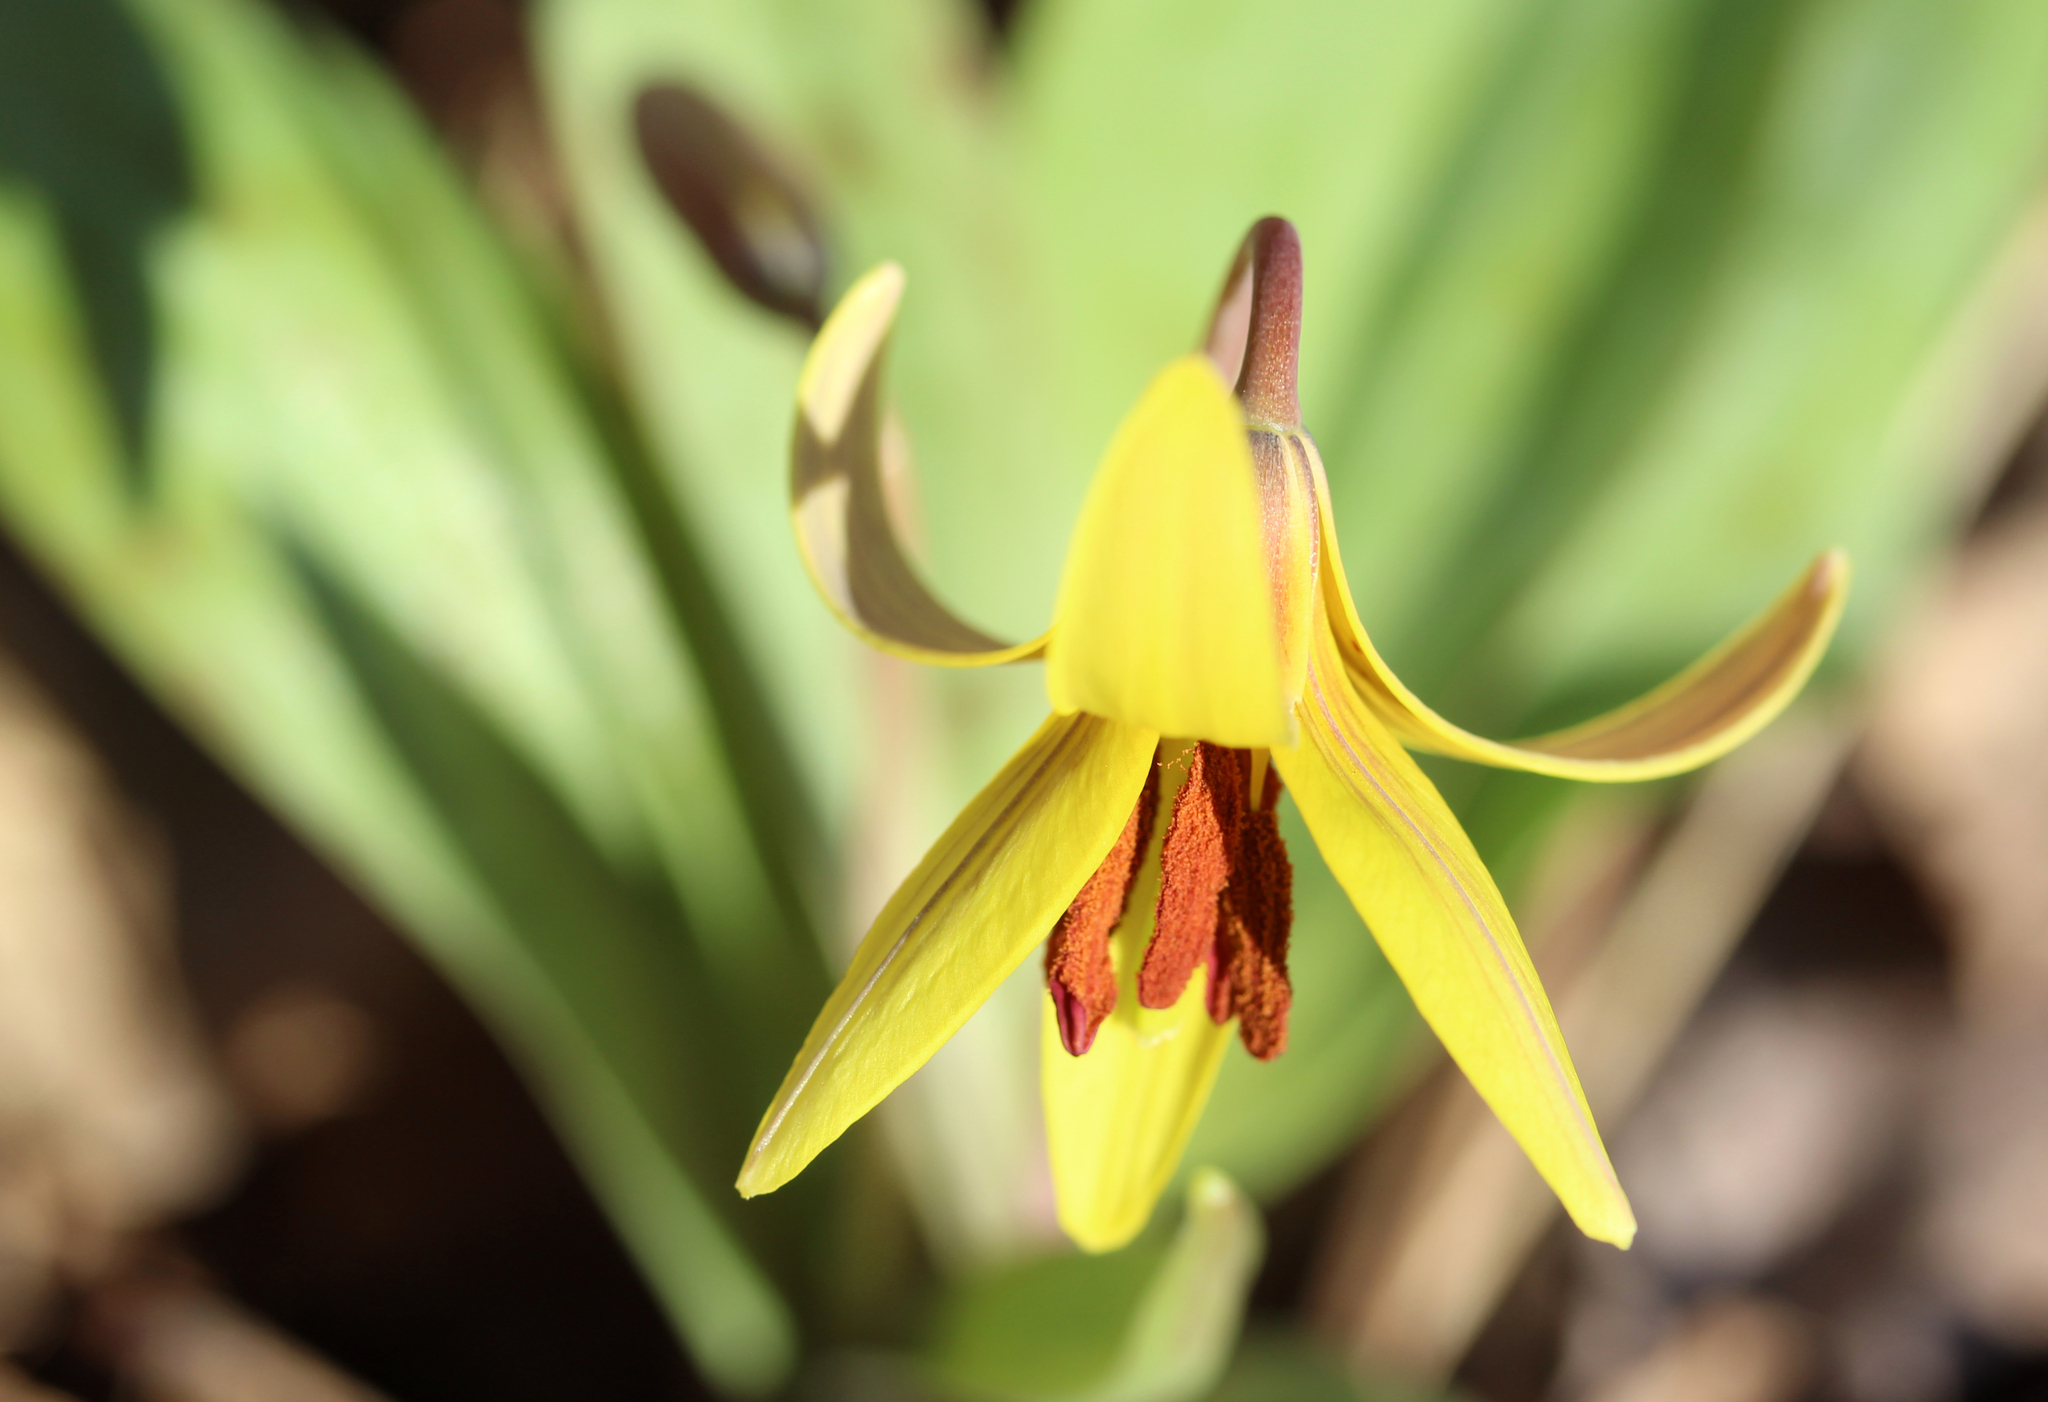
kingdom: Plantae
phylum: Tracheophyta
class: Liliopsida
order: Liliales
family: Liliaceae
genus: Erythronium
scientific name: Erythronium americanum
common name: Yellow adder's-tongue
